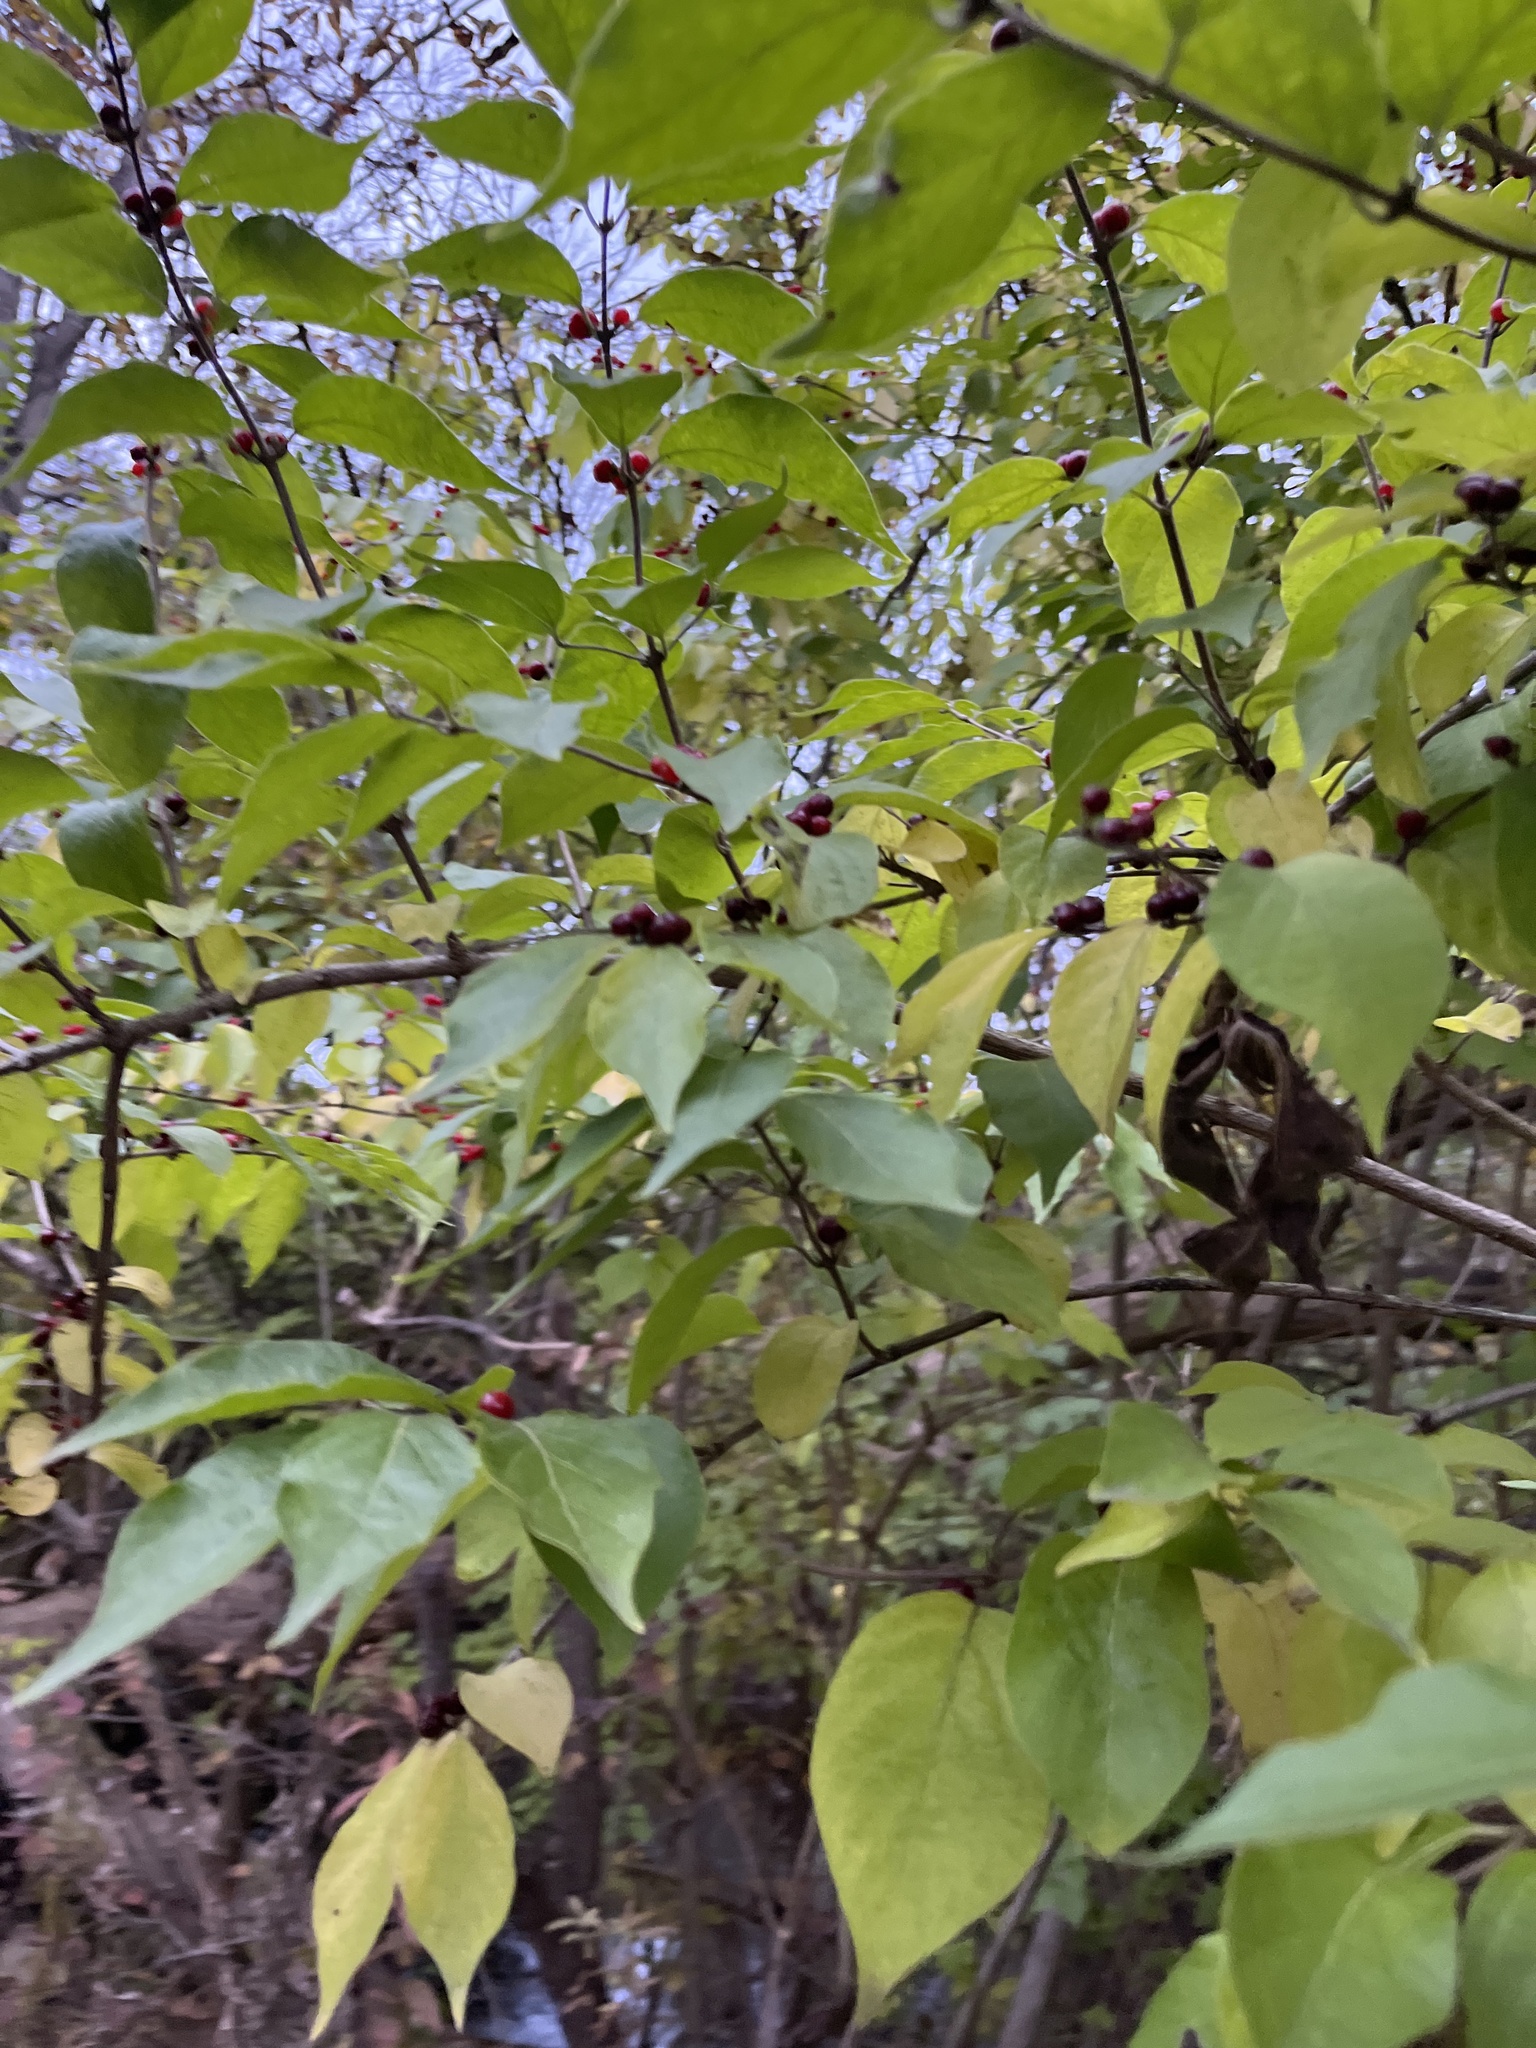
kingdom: Plantae
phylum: Tracheophyta
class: Magnoliopsida
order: Dipsacales
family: Caprifoliaceae
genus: Lonicera
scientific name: Lonicera maackii
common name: Amur honeysuckle
